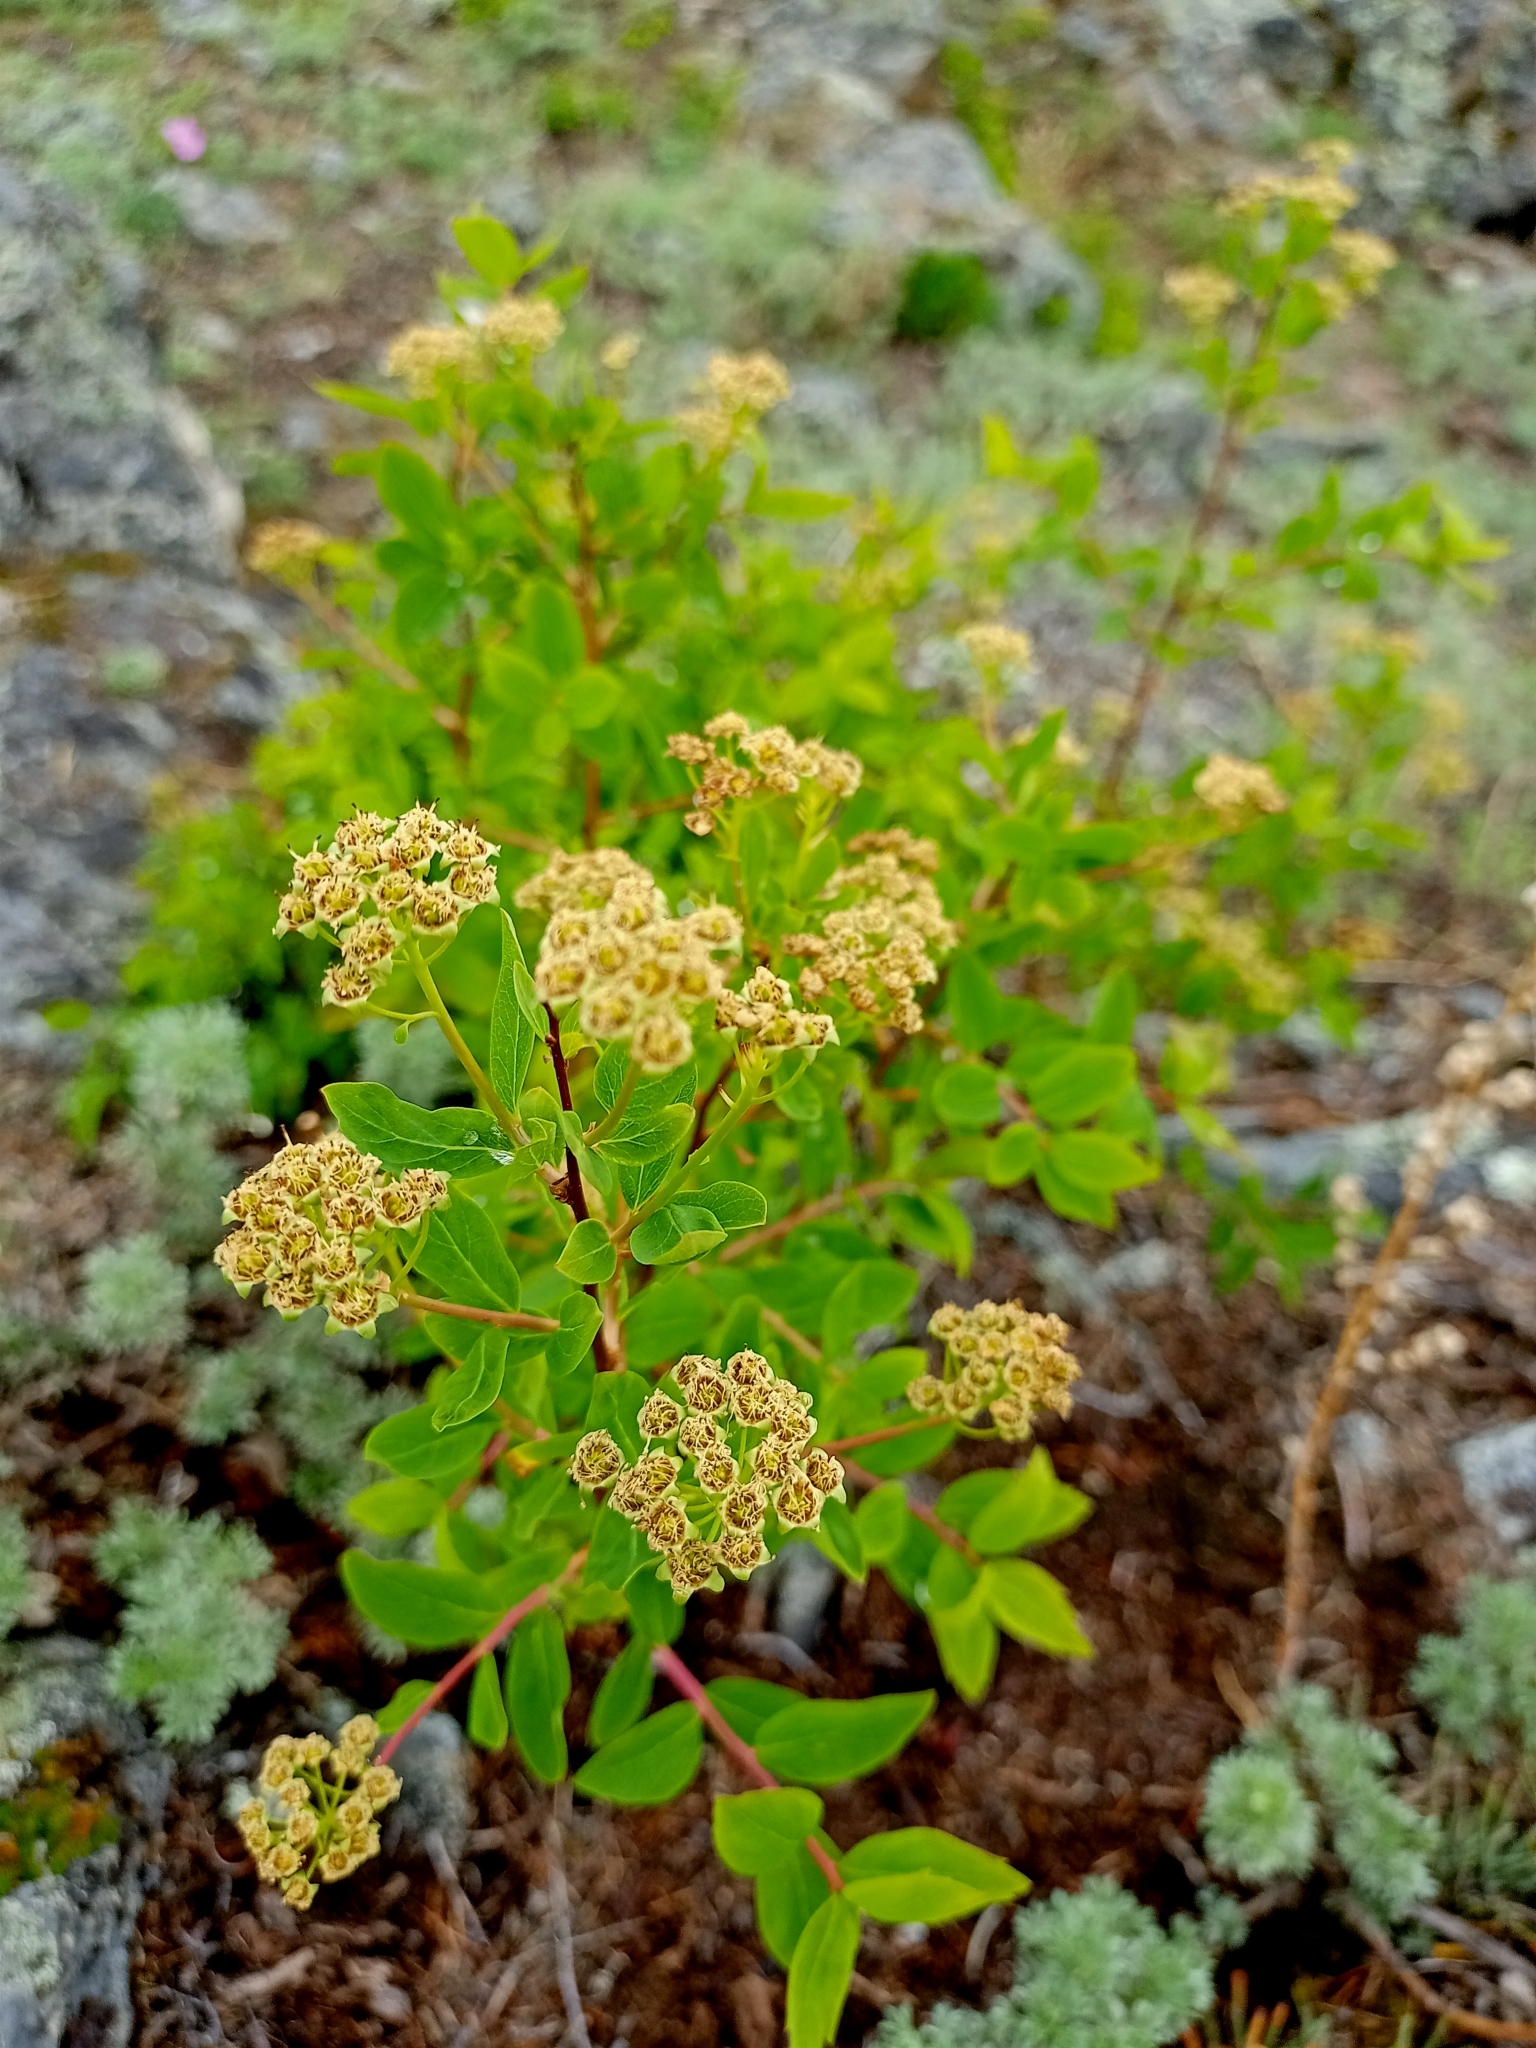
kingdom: Plantae
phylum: Tracheophyta
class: Magnoliopsida
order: Rosales
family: Rosaceae
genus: Spiraea
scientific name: Spiraea media
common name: Russian spiraea
